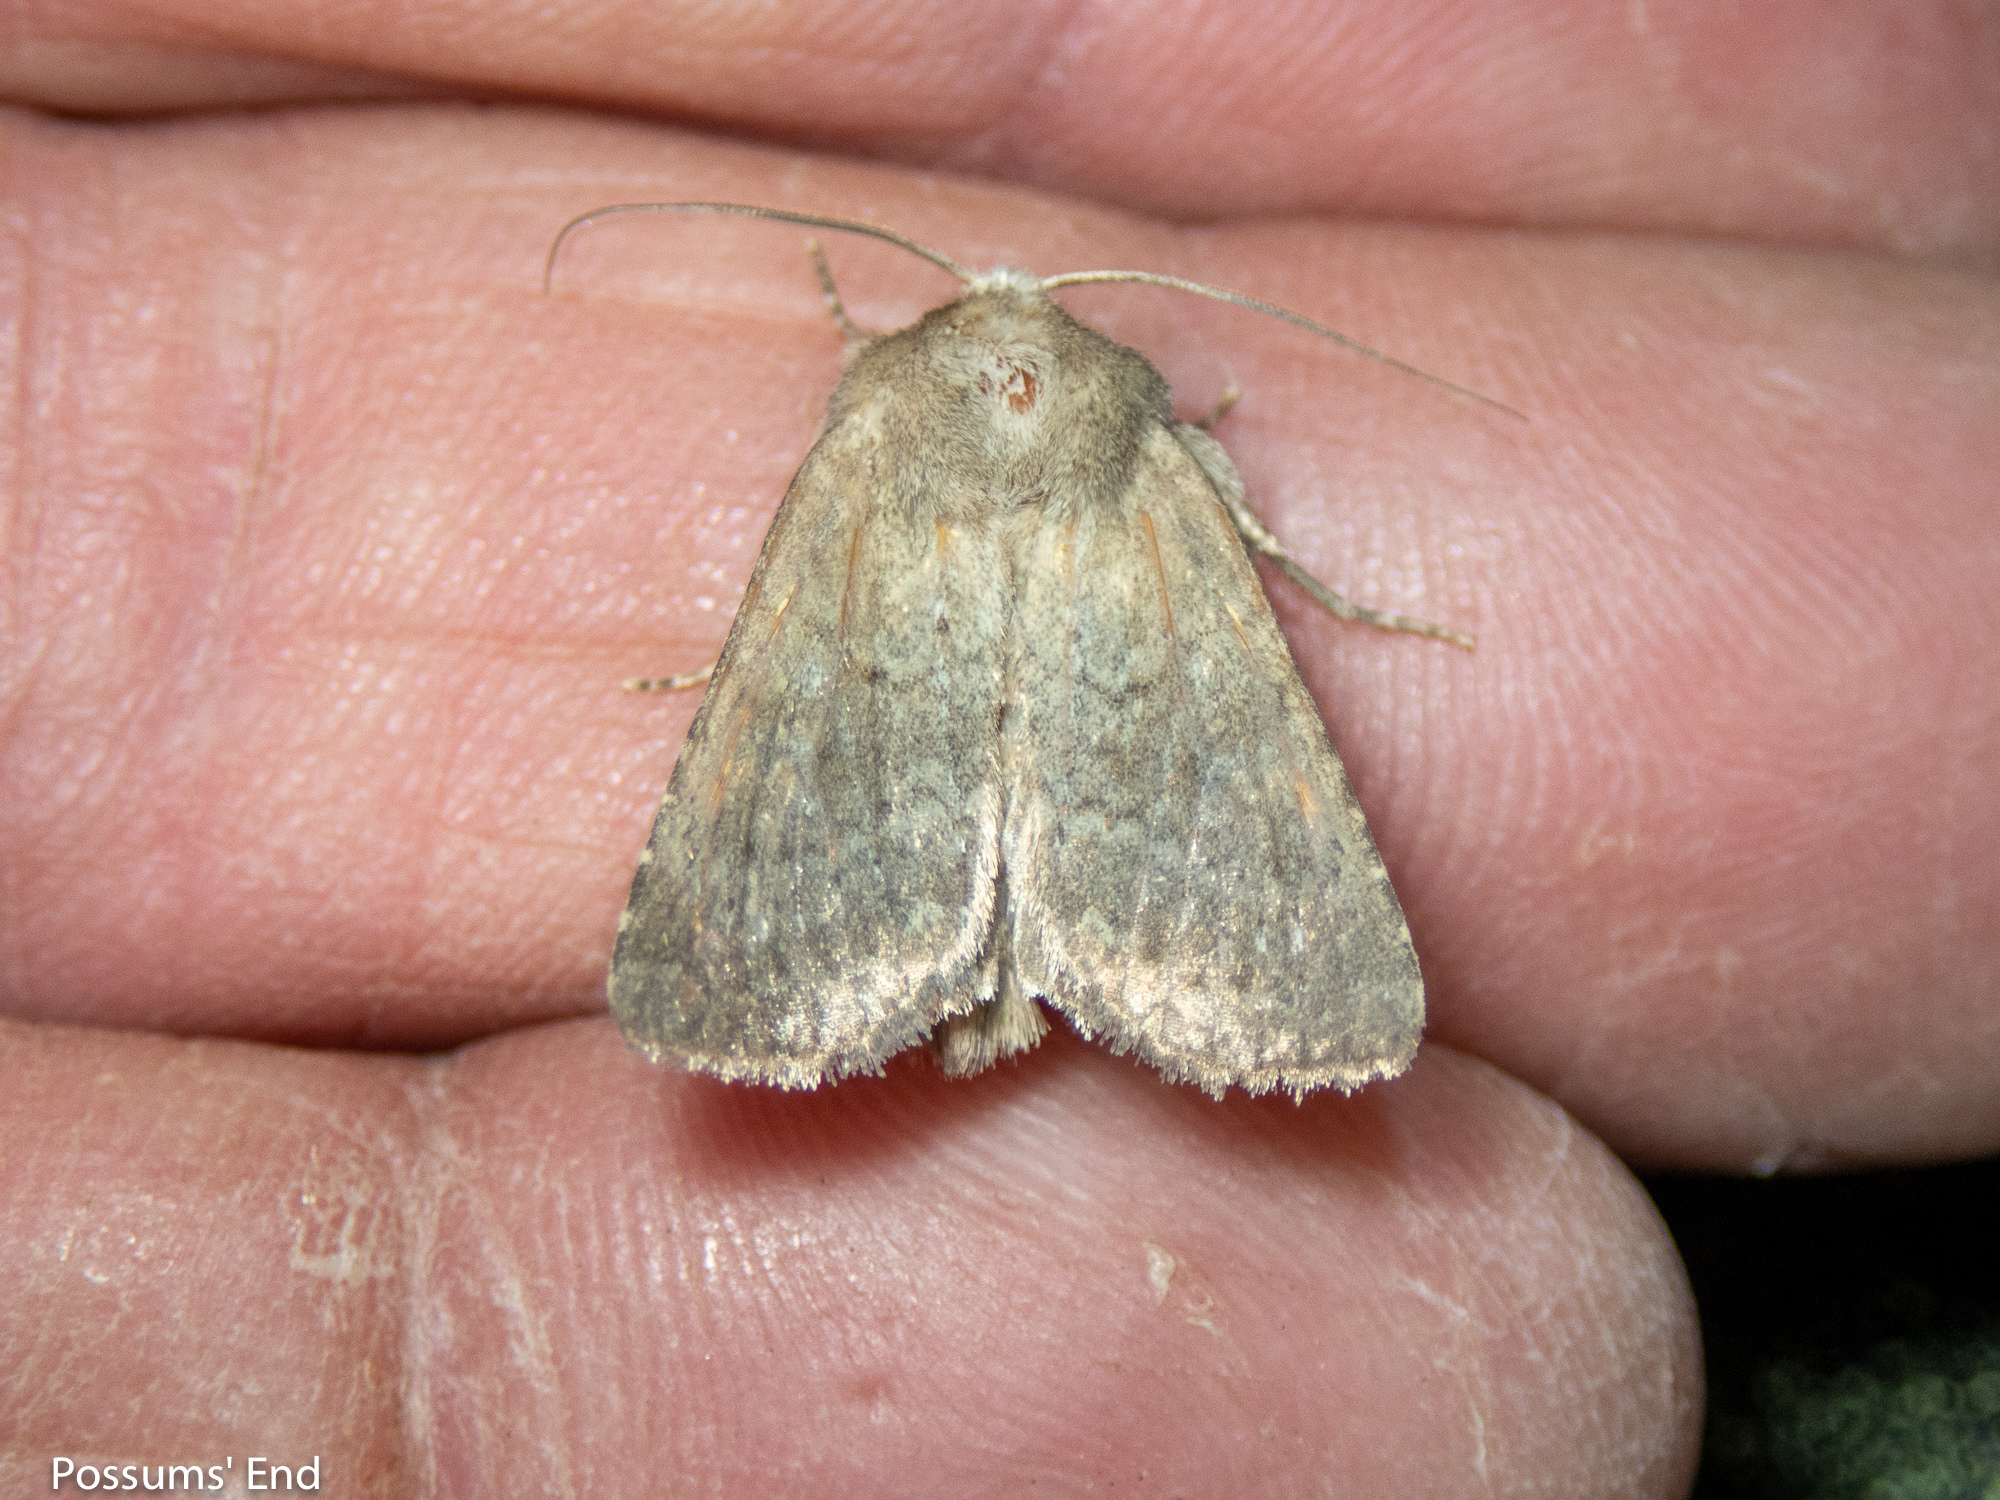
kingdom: Animalia
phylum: Arthropoda
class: Insecta
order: Lepidoptera
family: Noctuidae
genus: Physetica
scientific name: Physetica
